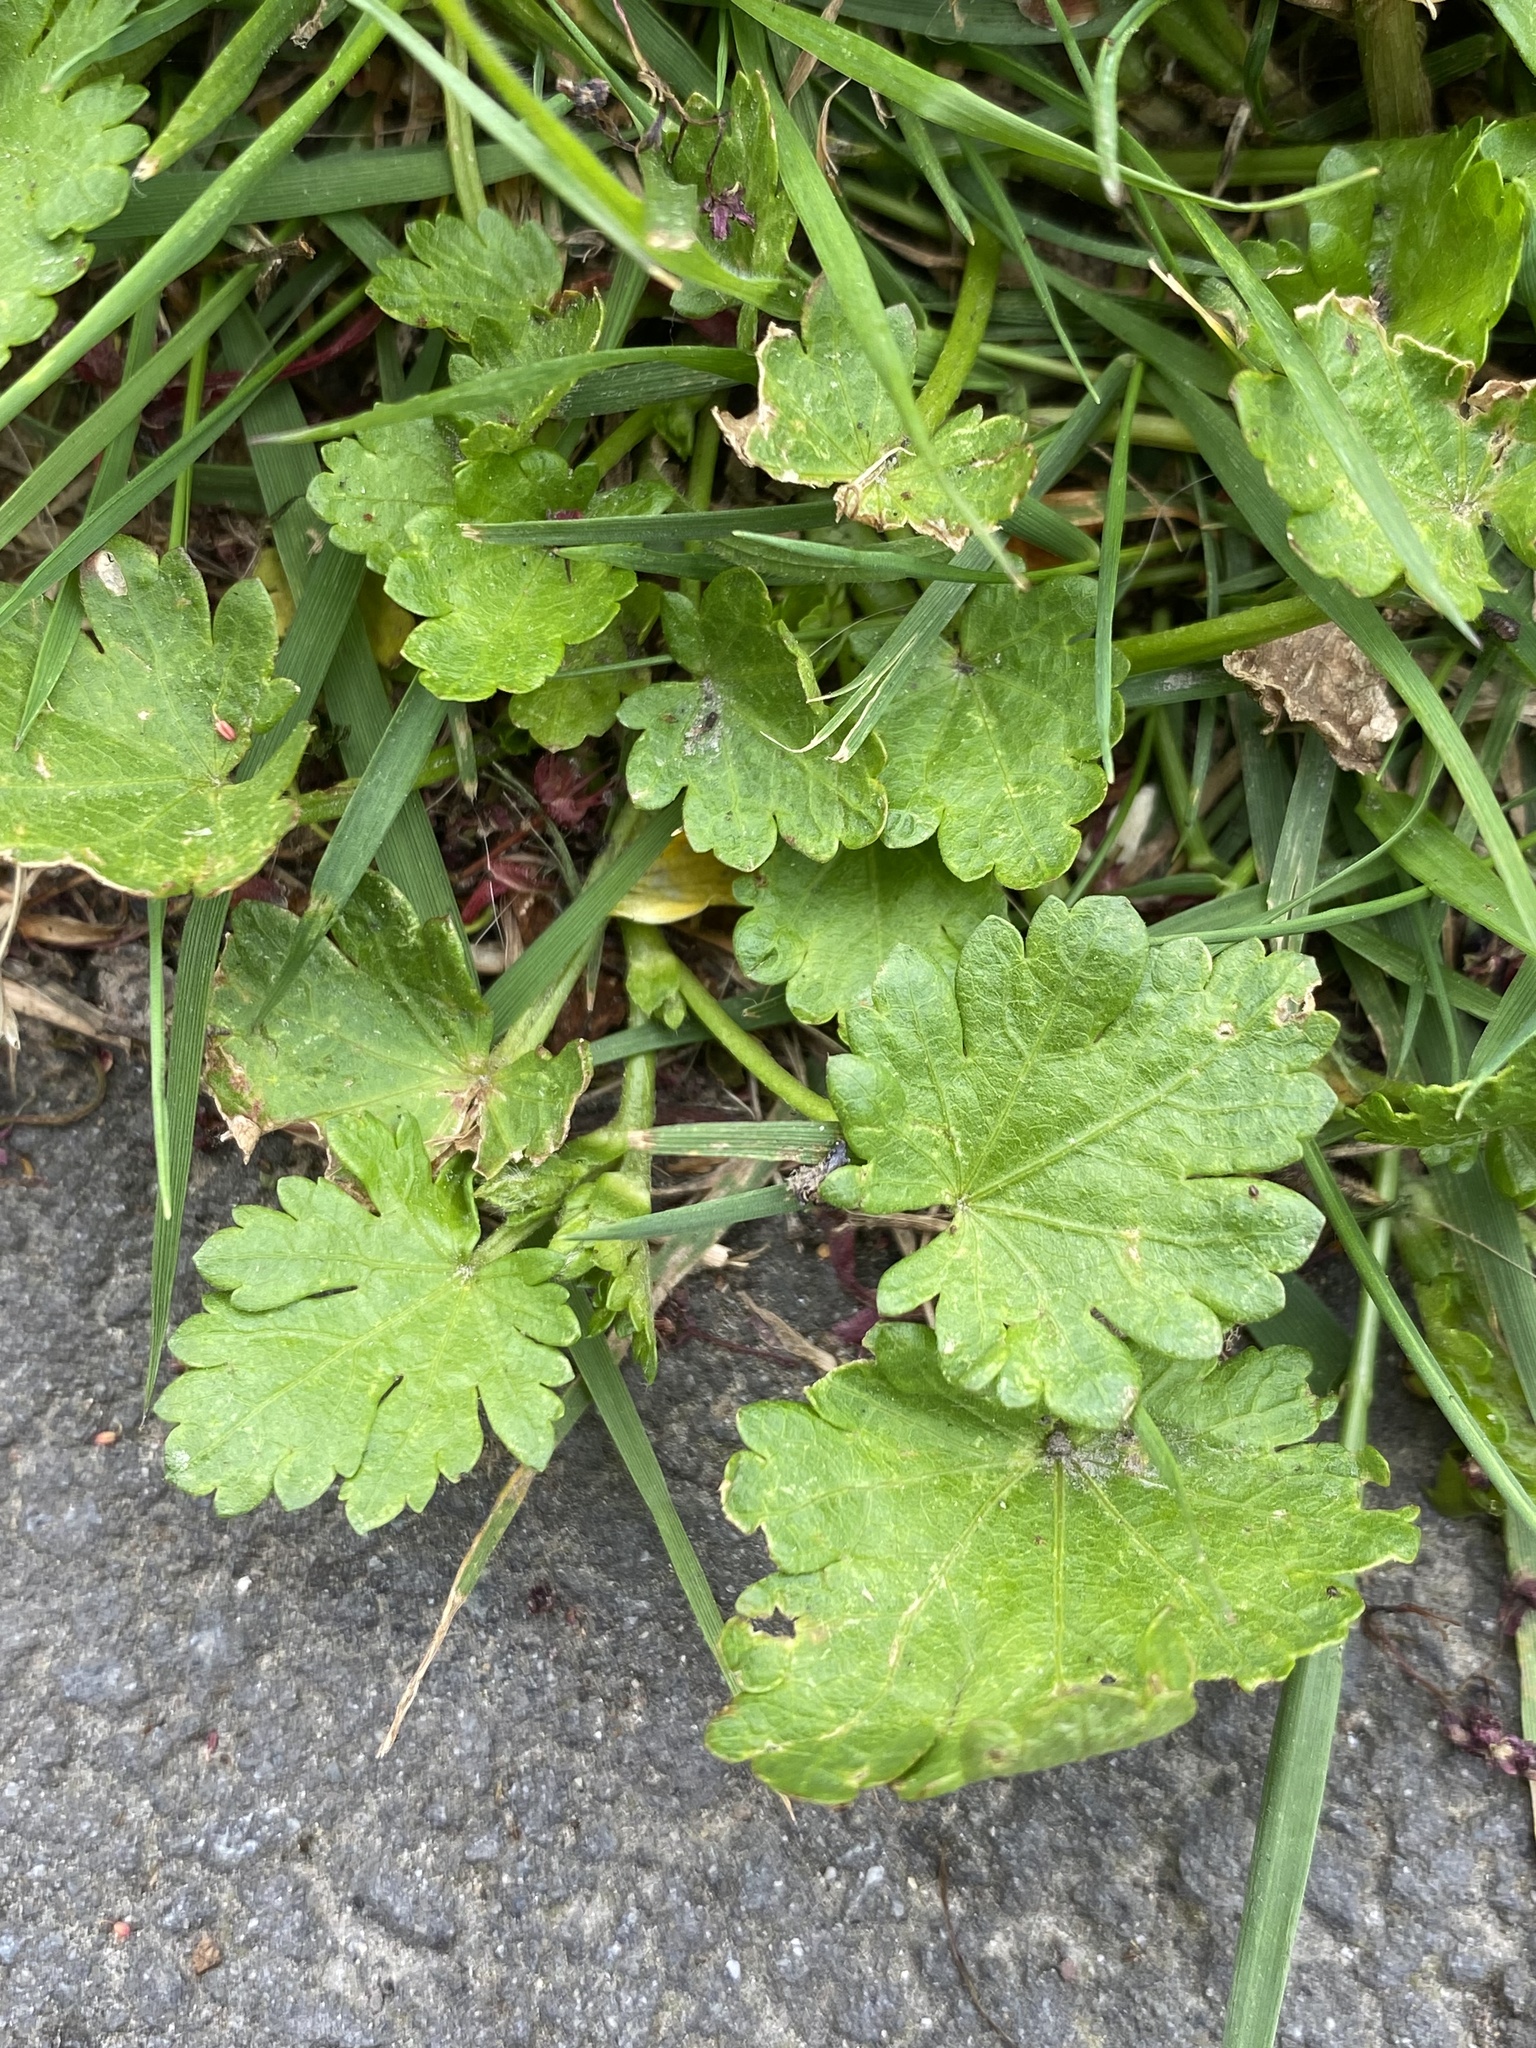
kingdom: Plantae
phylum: Tracheophyta
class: Magnoliopsida
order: Malvales
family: Malvaceae
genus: Modiola
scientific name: Modiola caroliniana
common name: Carolina bristlemallow
